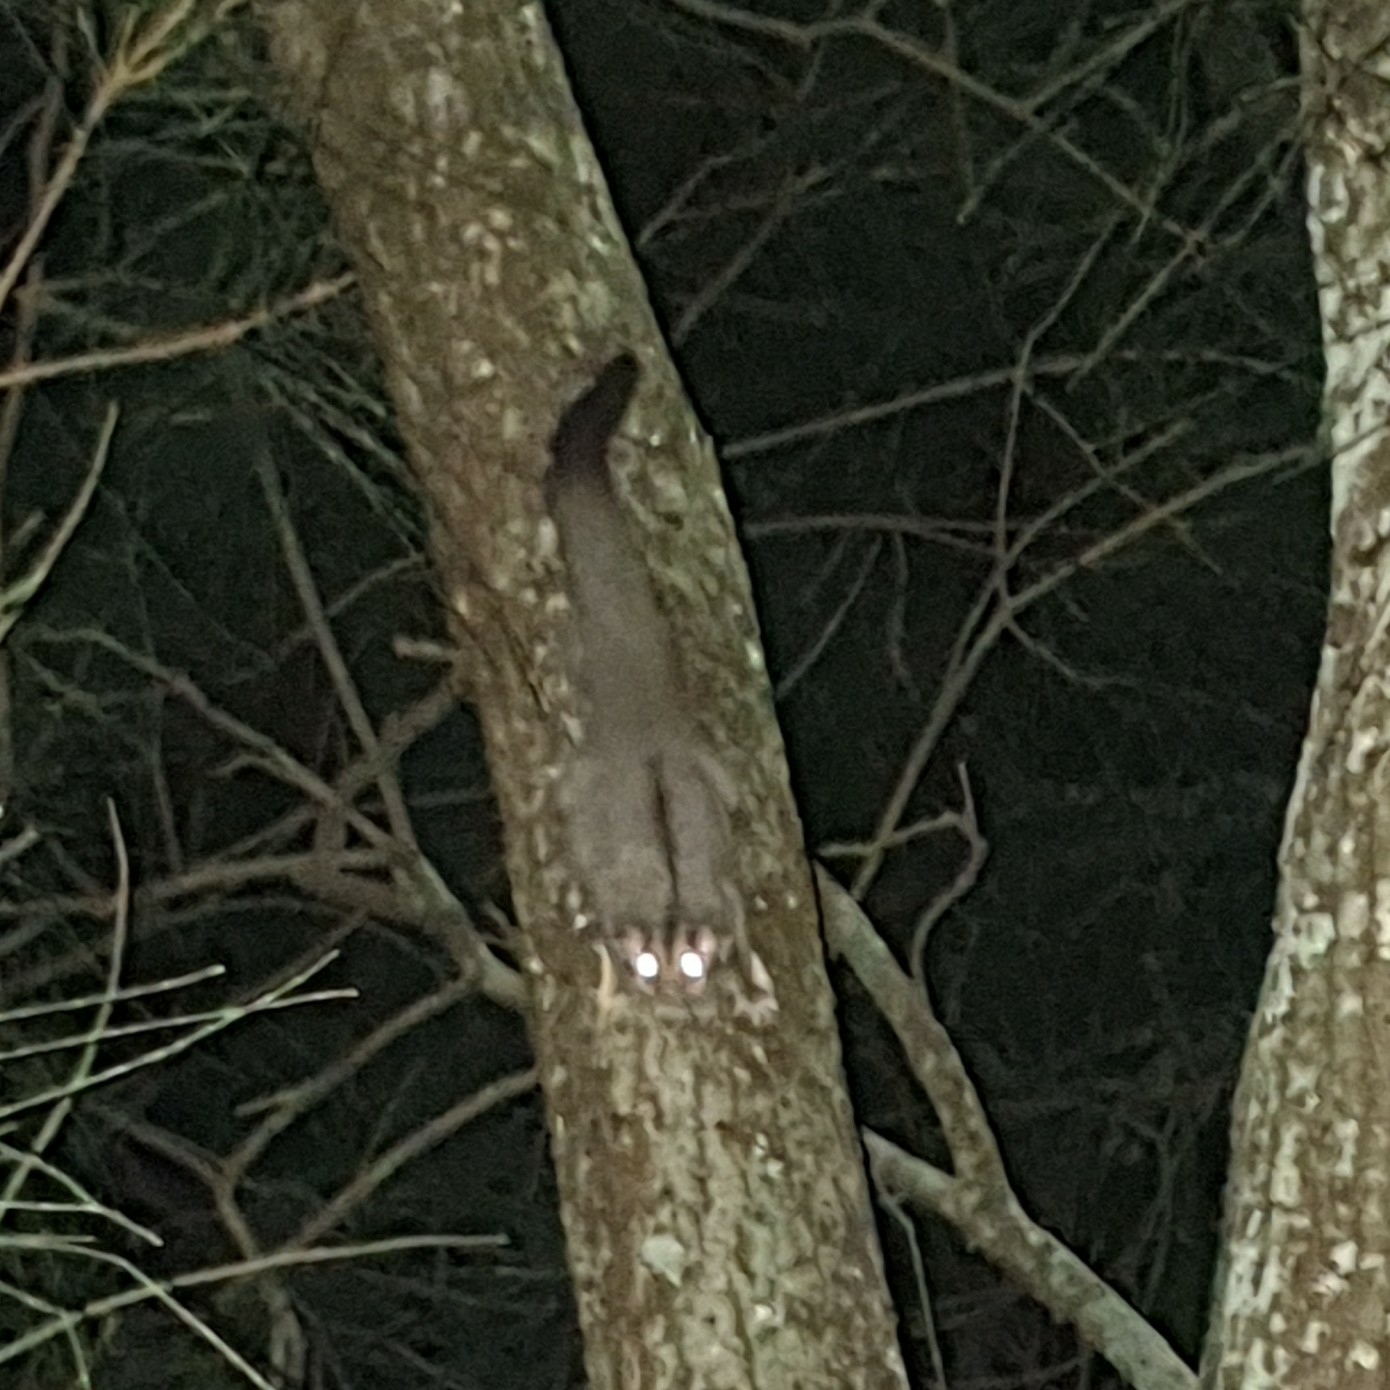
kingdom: Animalia
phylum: Chordata
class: Mammalia
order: Diprotodontia
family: Petauridae
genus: Petaurus
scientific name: Petaurus breviceps
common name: Sugar glider
